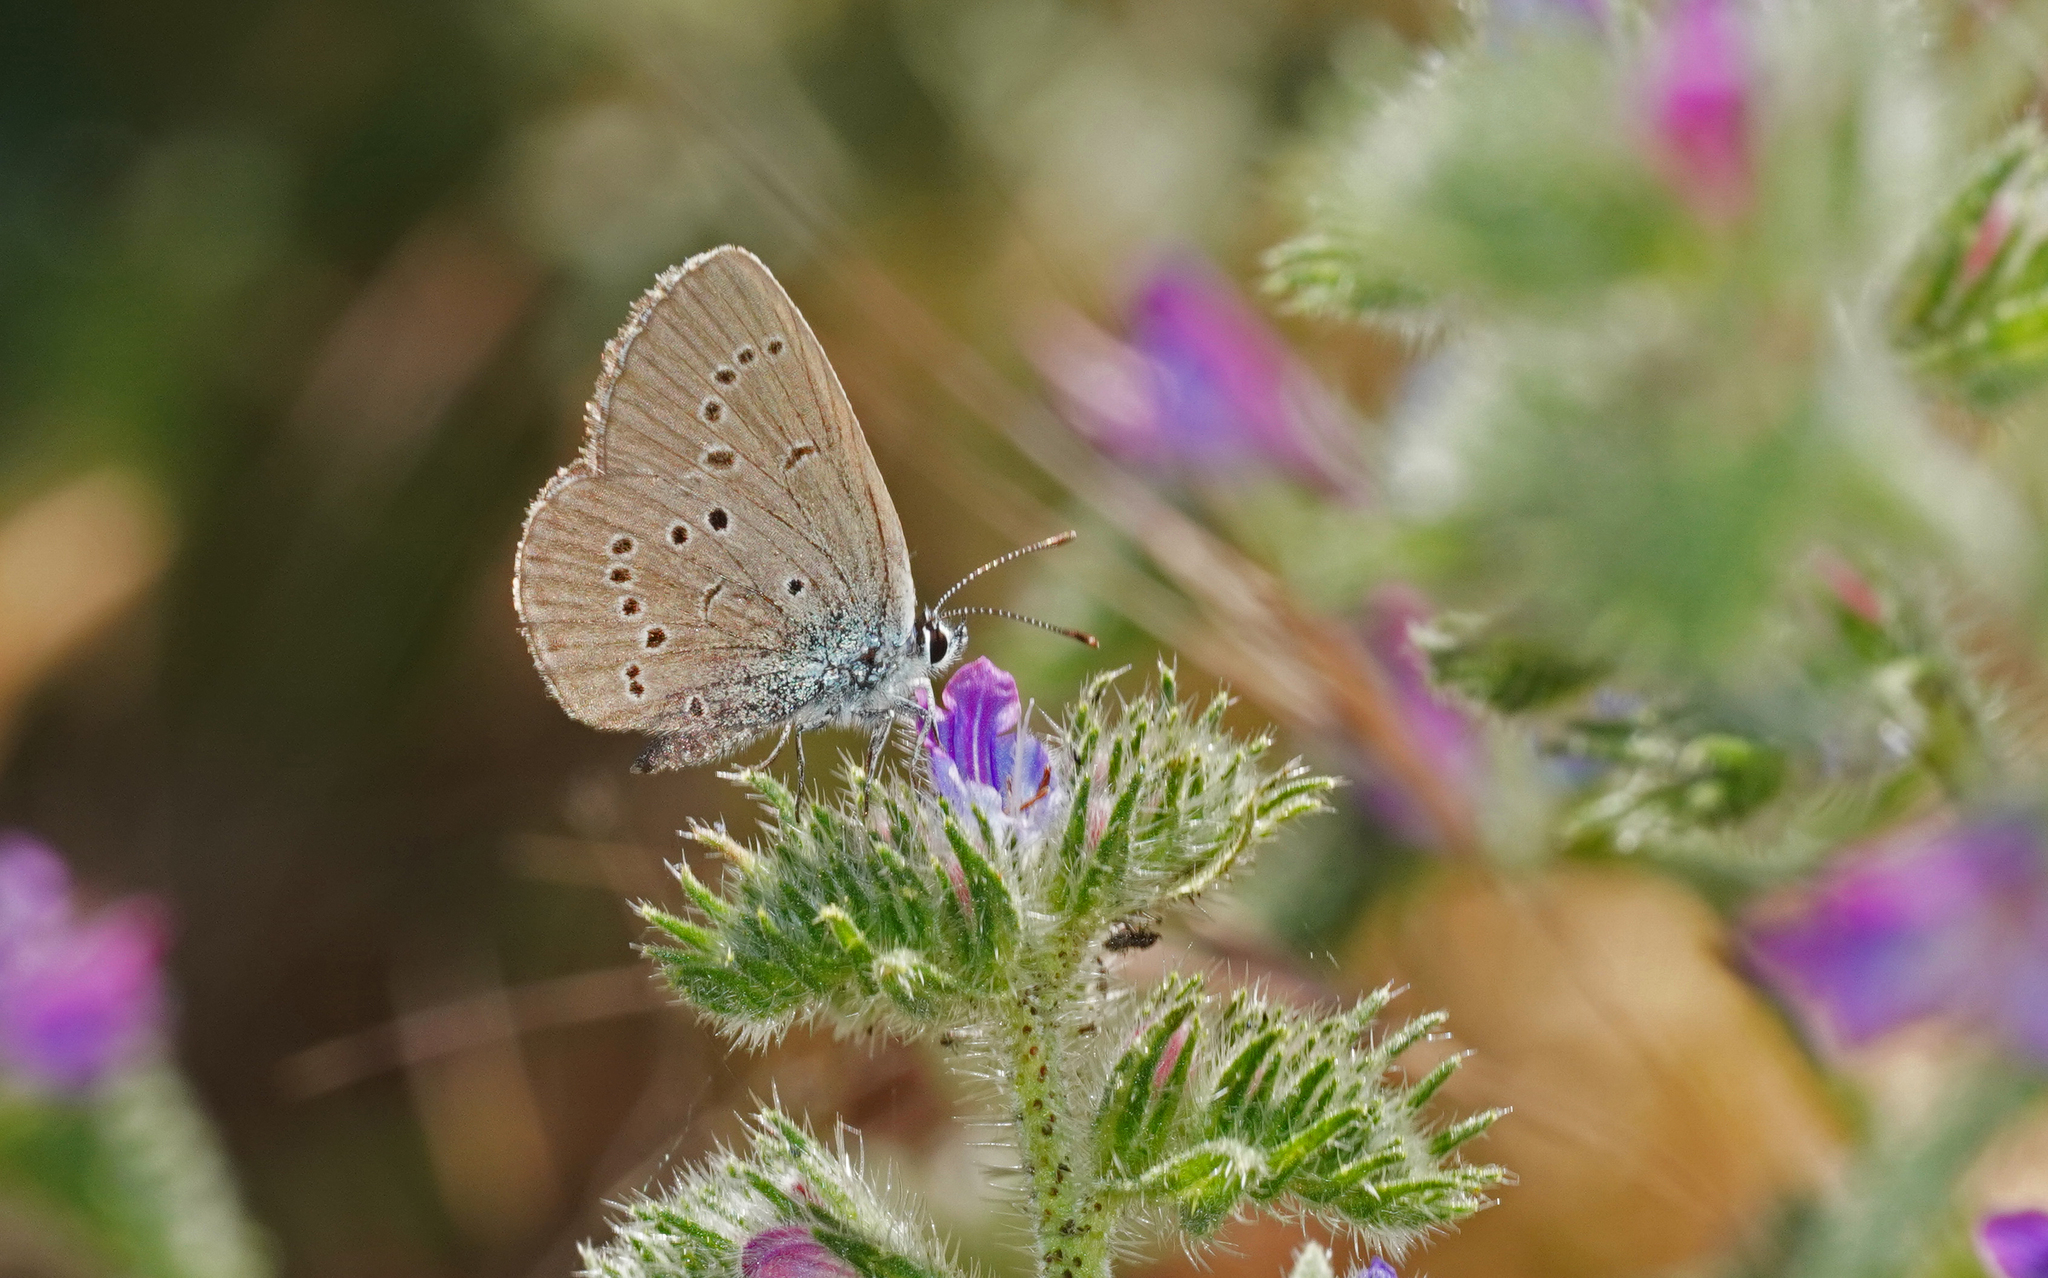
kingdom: Animalia
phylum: Arthropoda
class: Insecta
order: Lepidoptera
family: Lycaenidae
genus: Everes
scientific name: Everes sebrus
